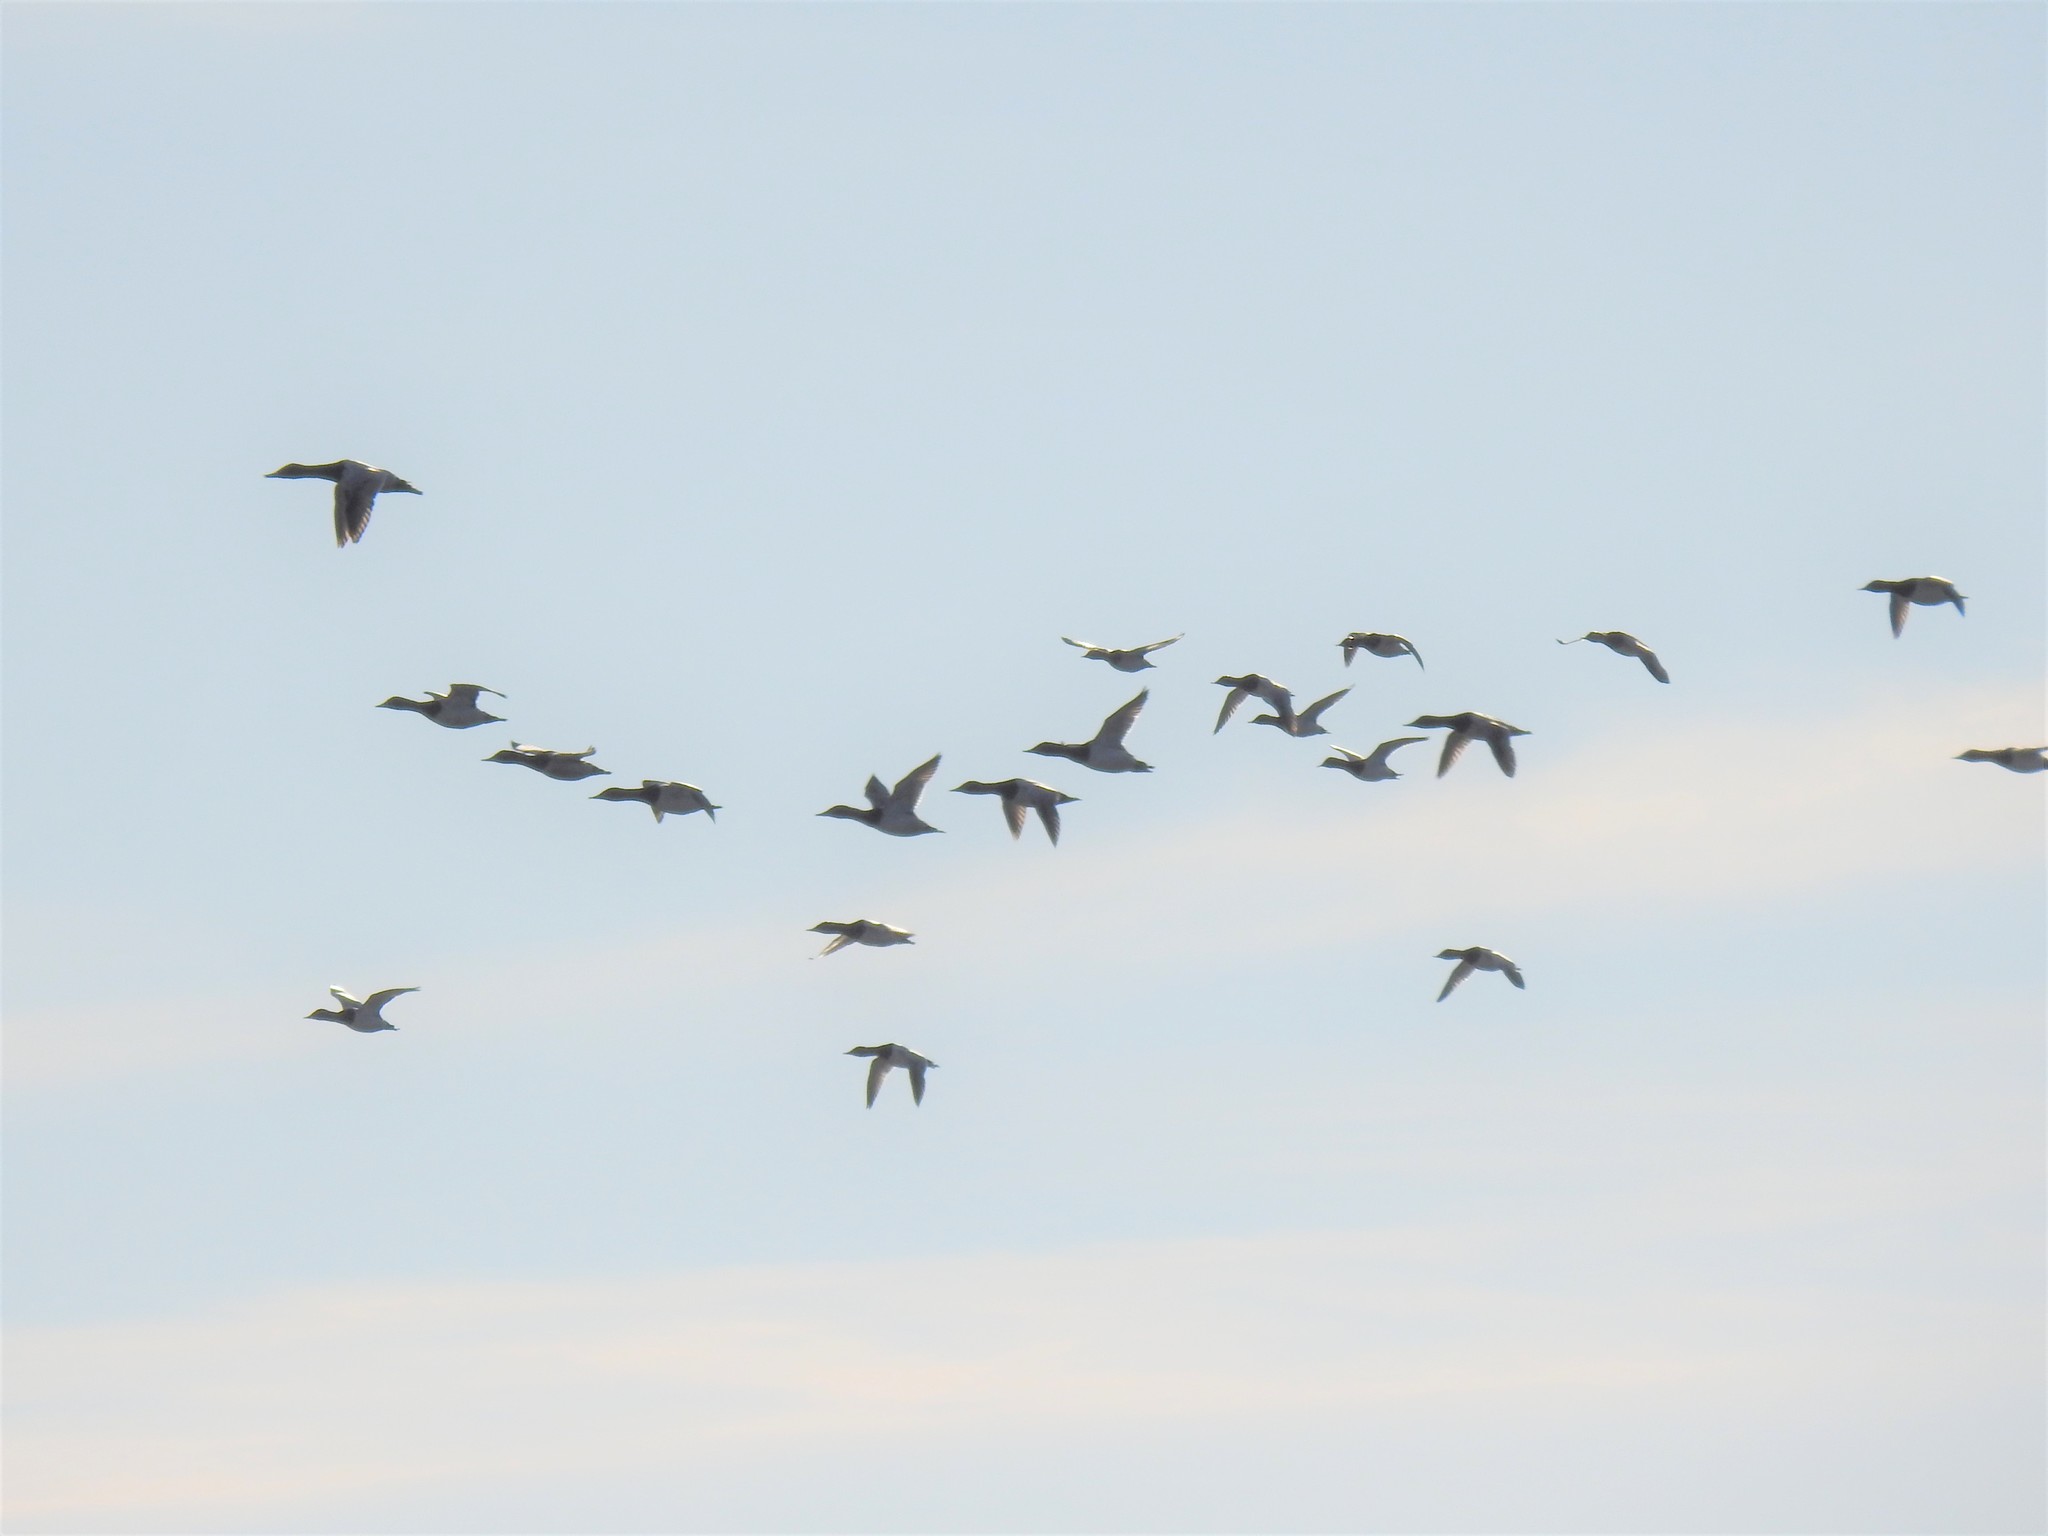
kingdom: Animalia
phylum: Chordata
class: Aves
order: Anseriformes
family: Anatidae
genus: Aythya
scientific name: Aythya valisineria
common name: Canvasback
